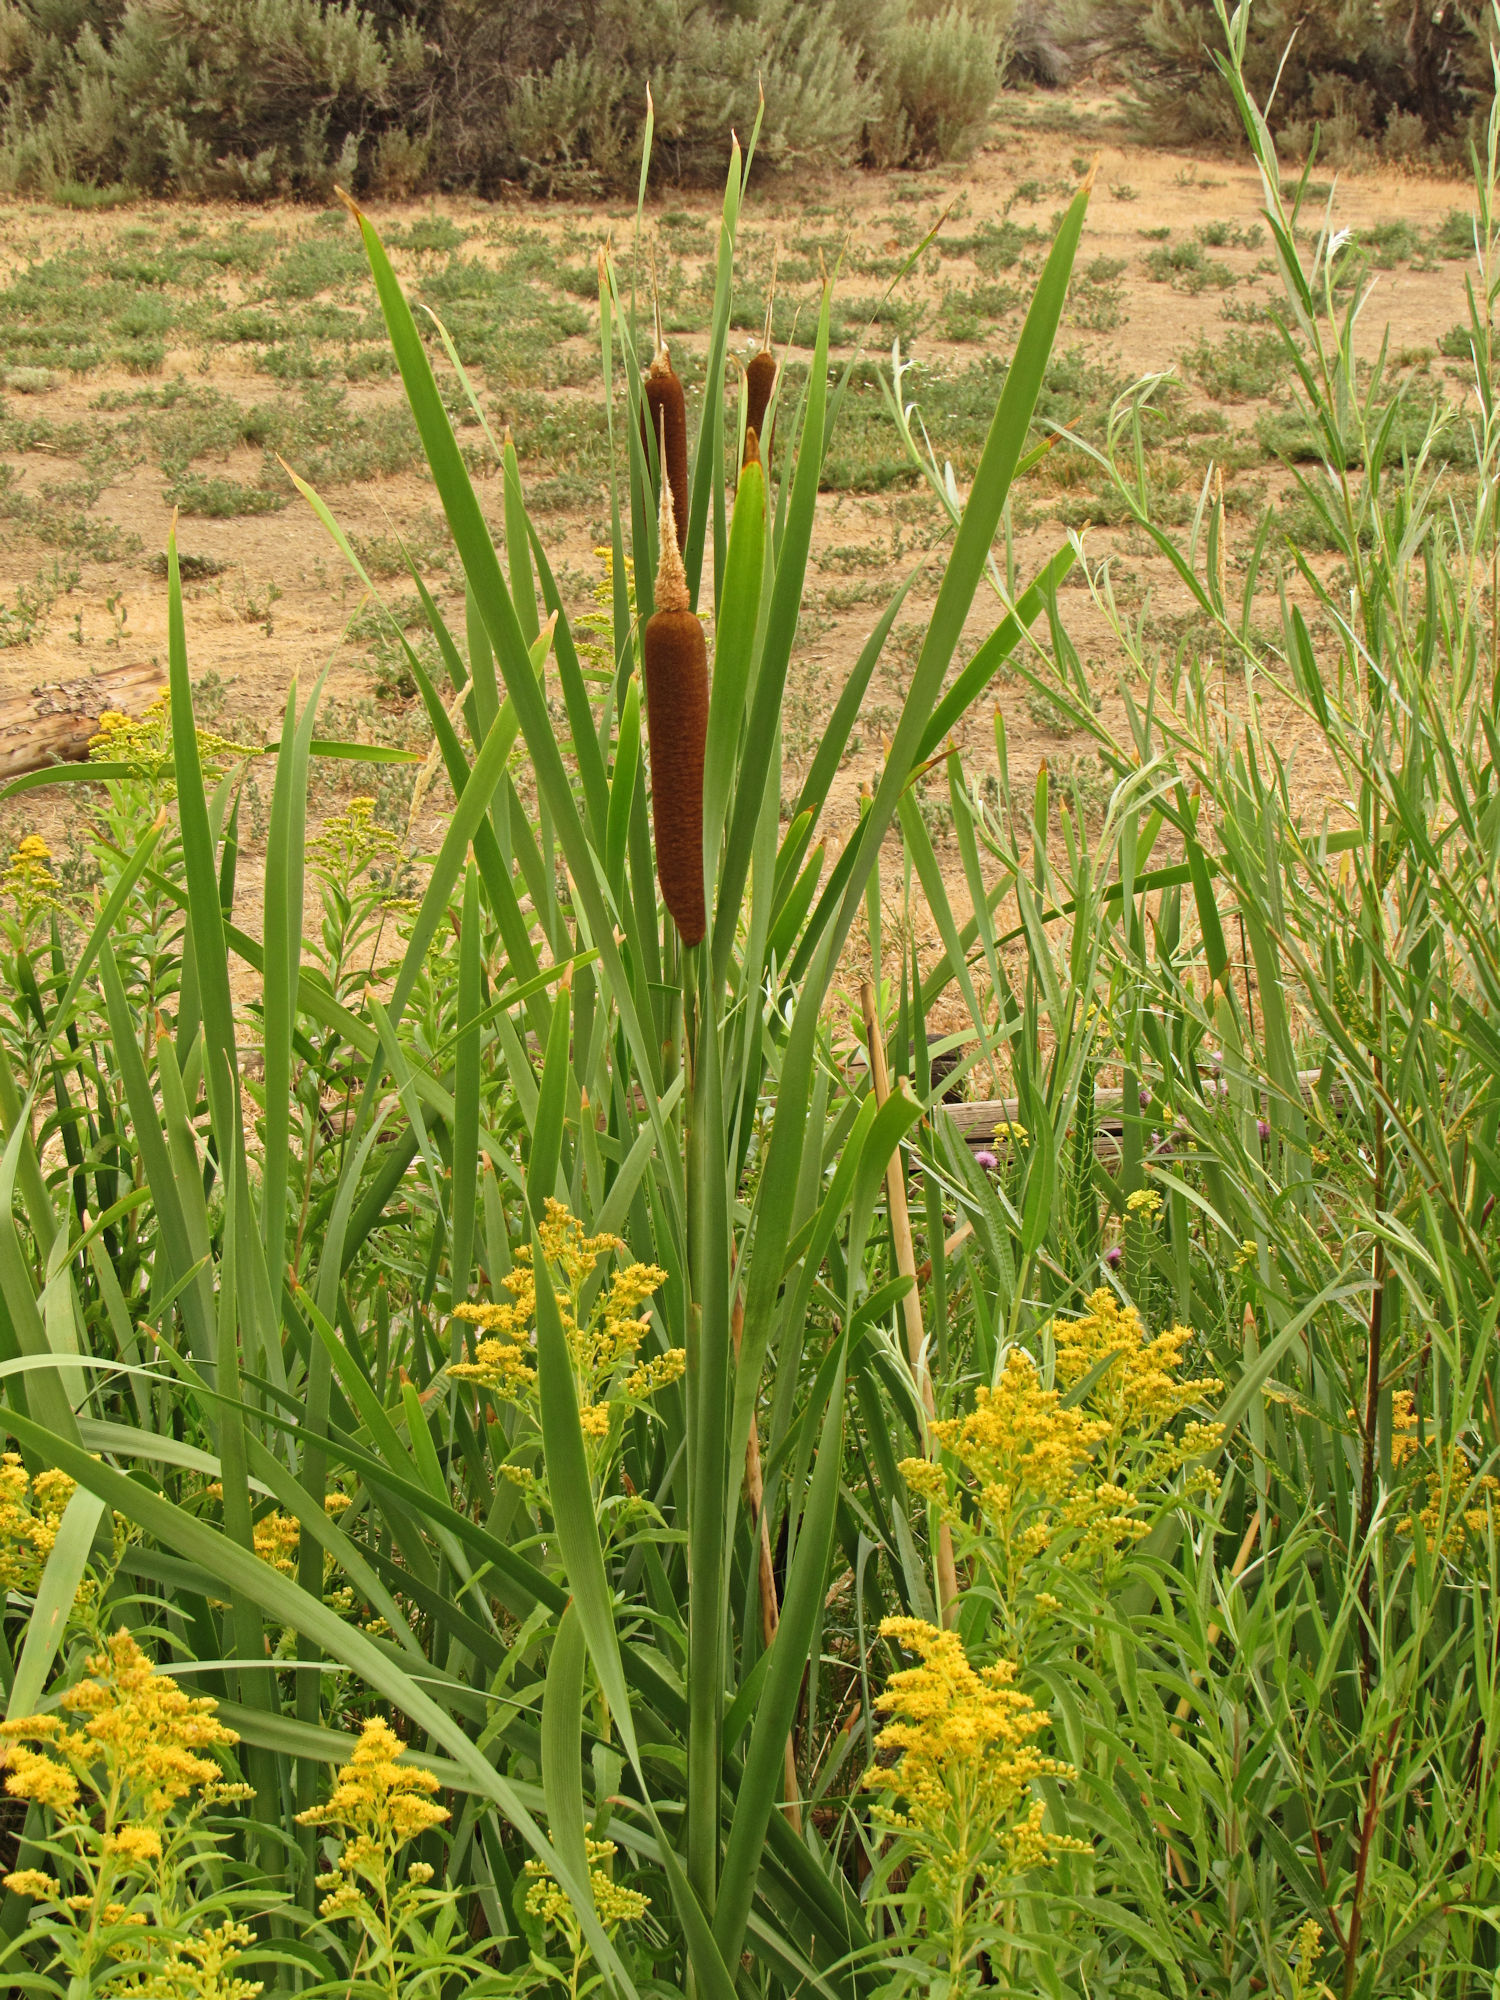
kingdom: Plantae
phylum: Tracheophyta
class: Liliopsida
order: Poales
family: Typhaceae
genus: Typha
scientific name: Typha latifolia
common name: Broadleaf cattail
